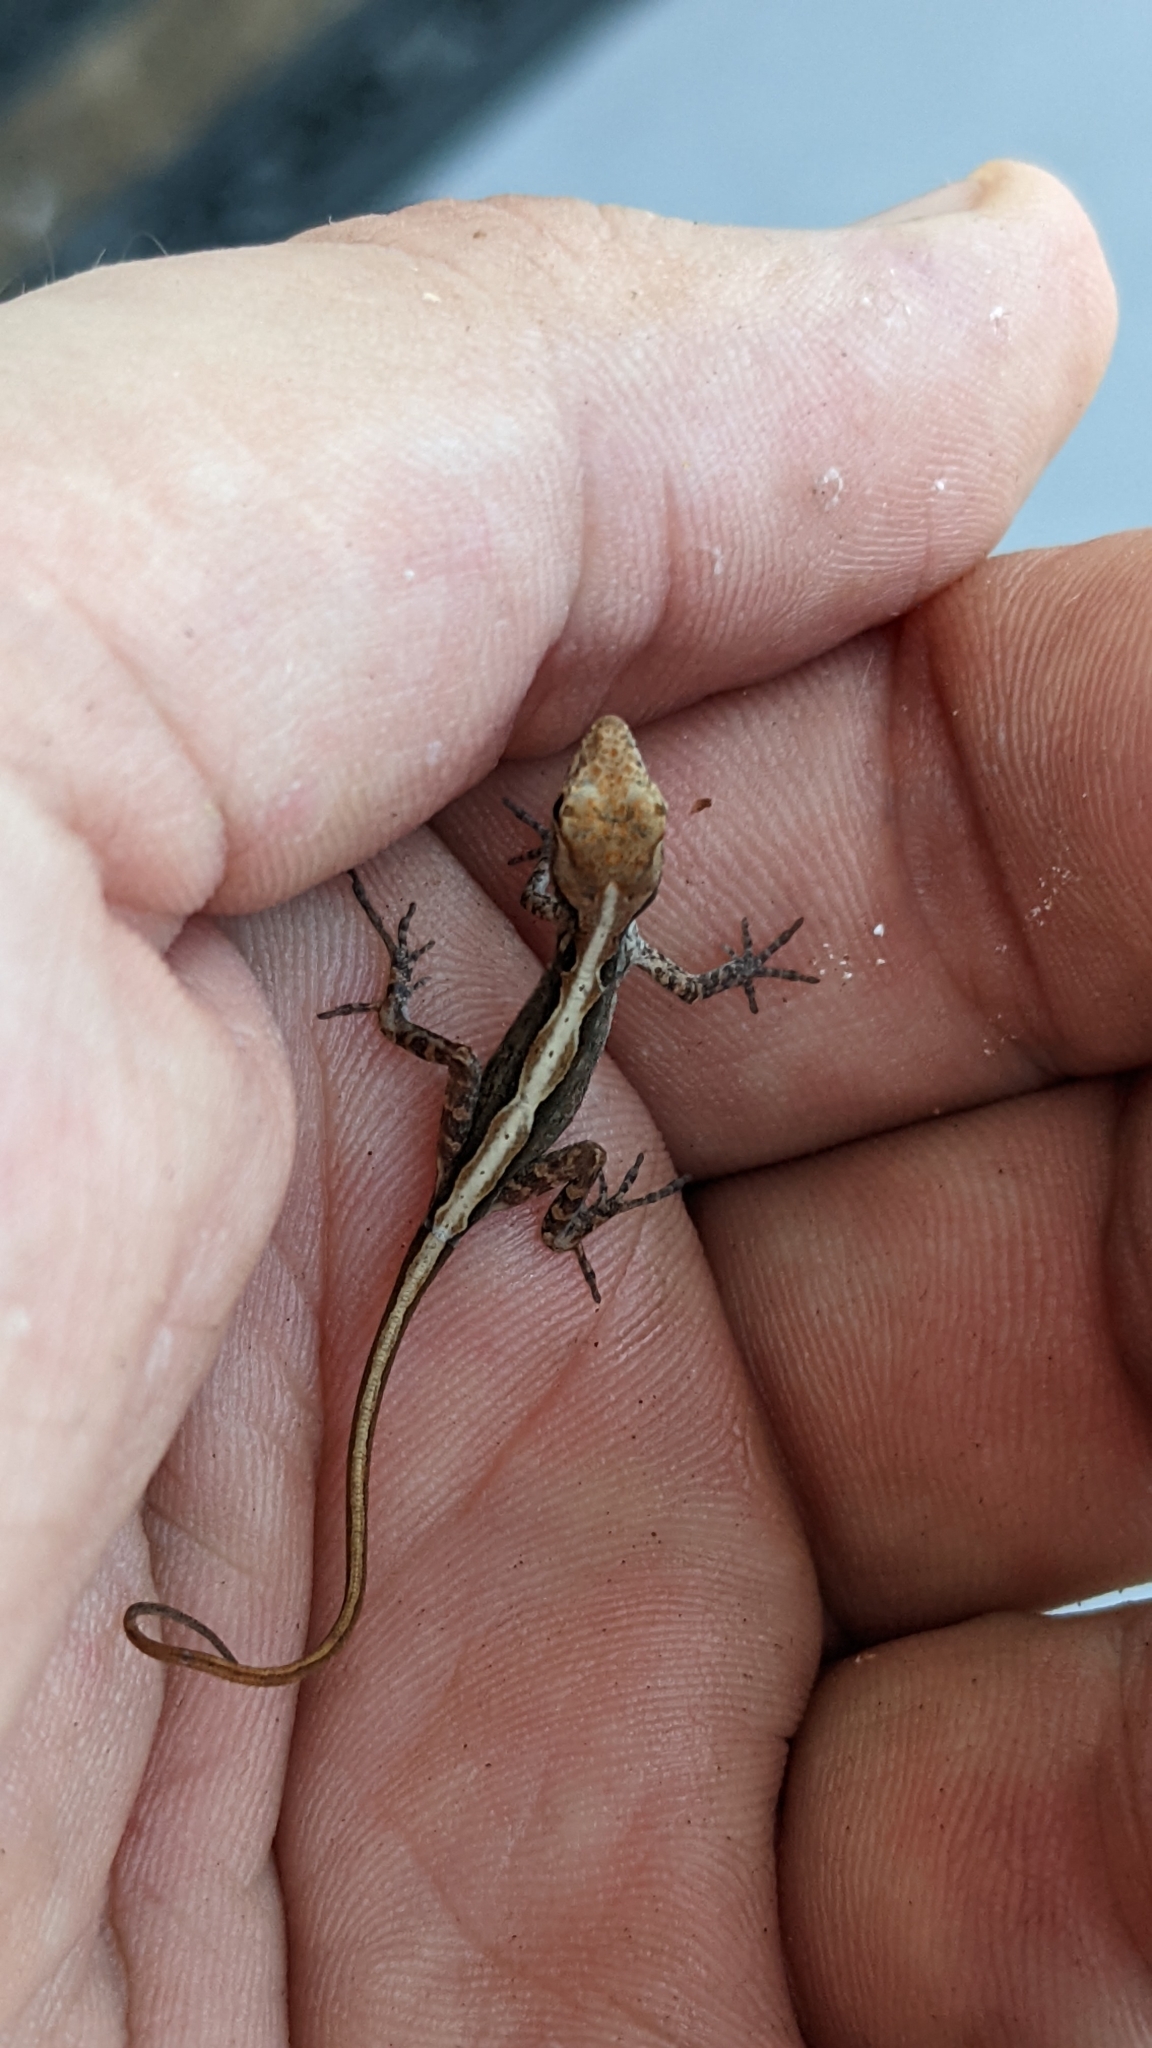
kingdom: Animalia
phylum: Chordata
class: Squamata
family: Dactyloidae
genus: Anolis
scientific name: Anolis sagrei
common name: Brown anole
